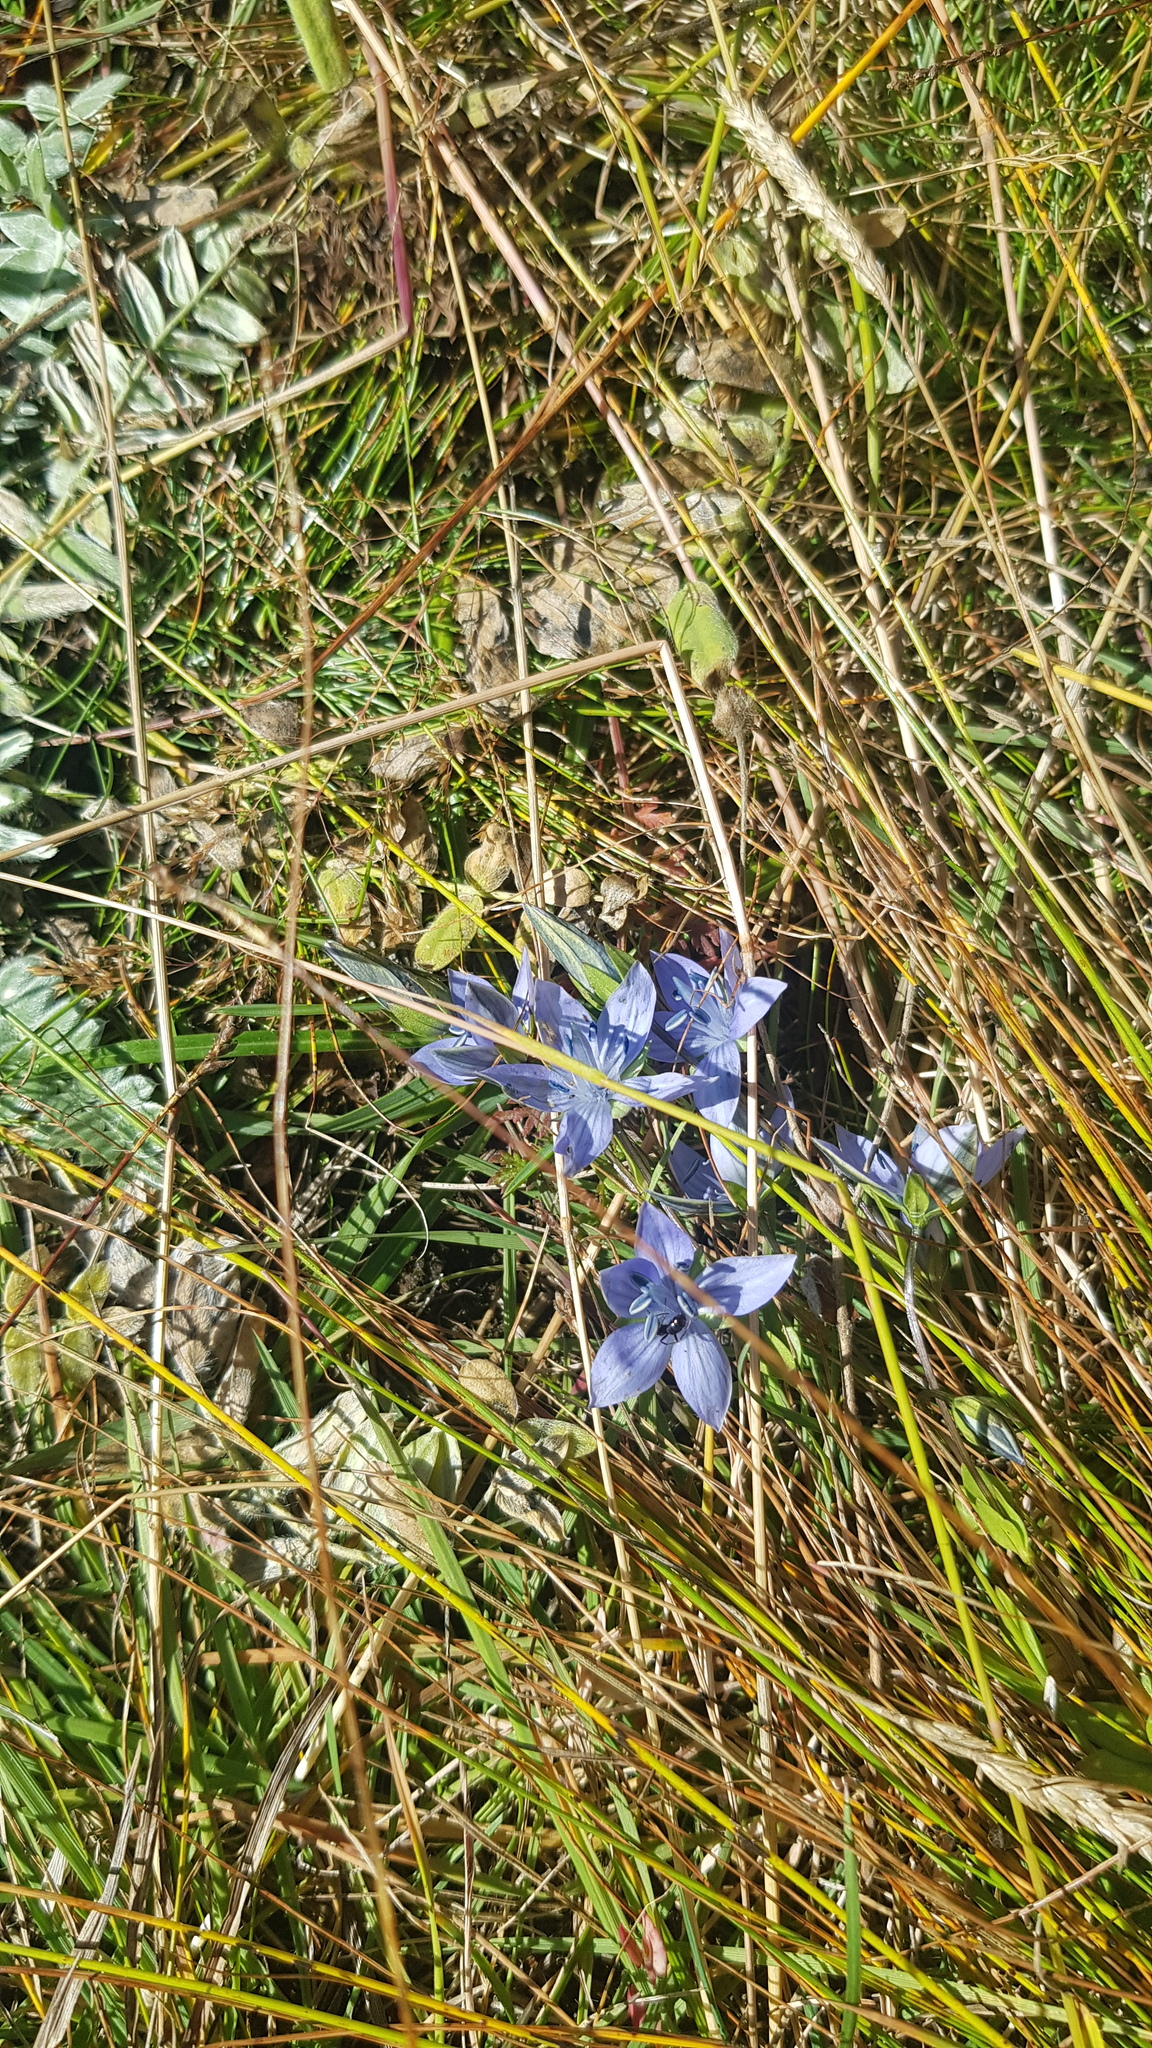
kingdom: Plantae
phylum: Tracheophyta
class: Magnoliopsida
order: Gentianales
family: Gentianaceae
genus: Lomatogonium
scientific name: Lomatogonium carinthiacum
